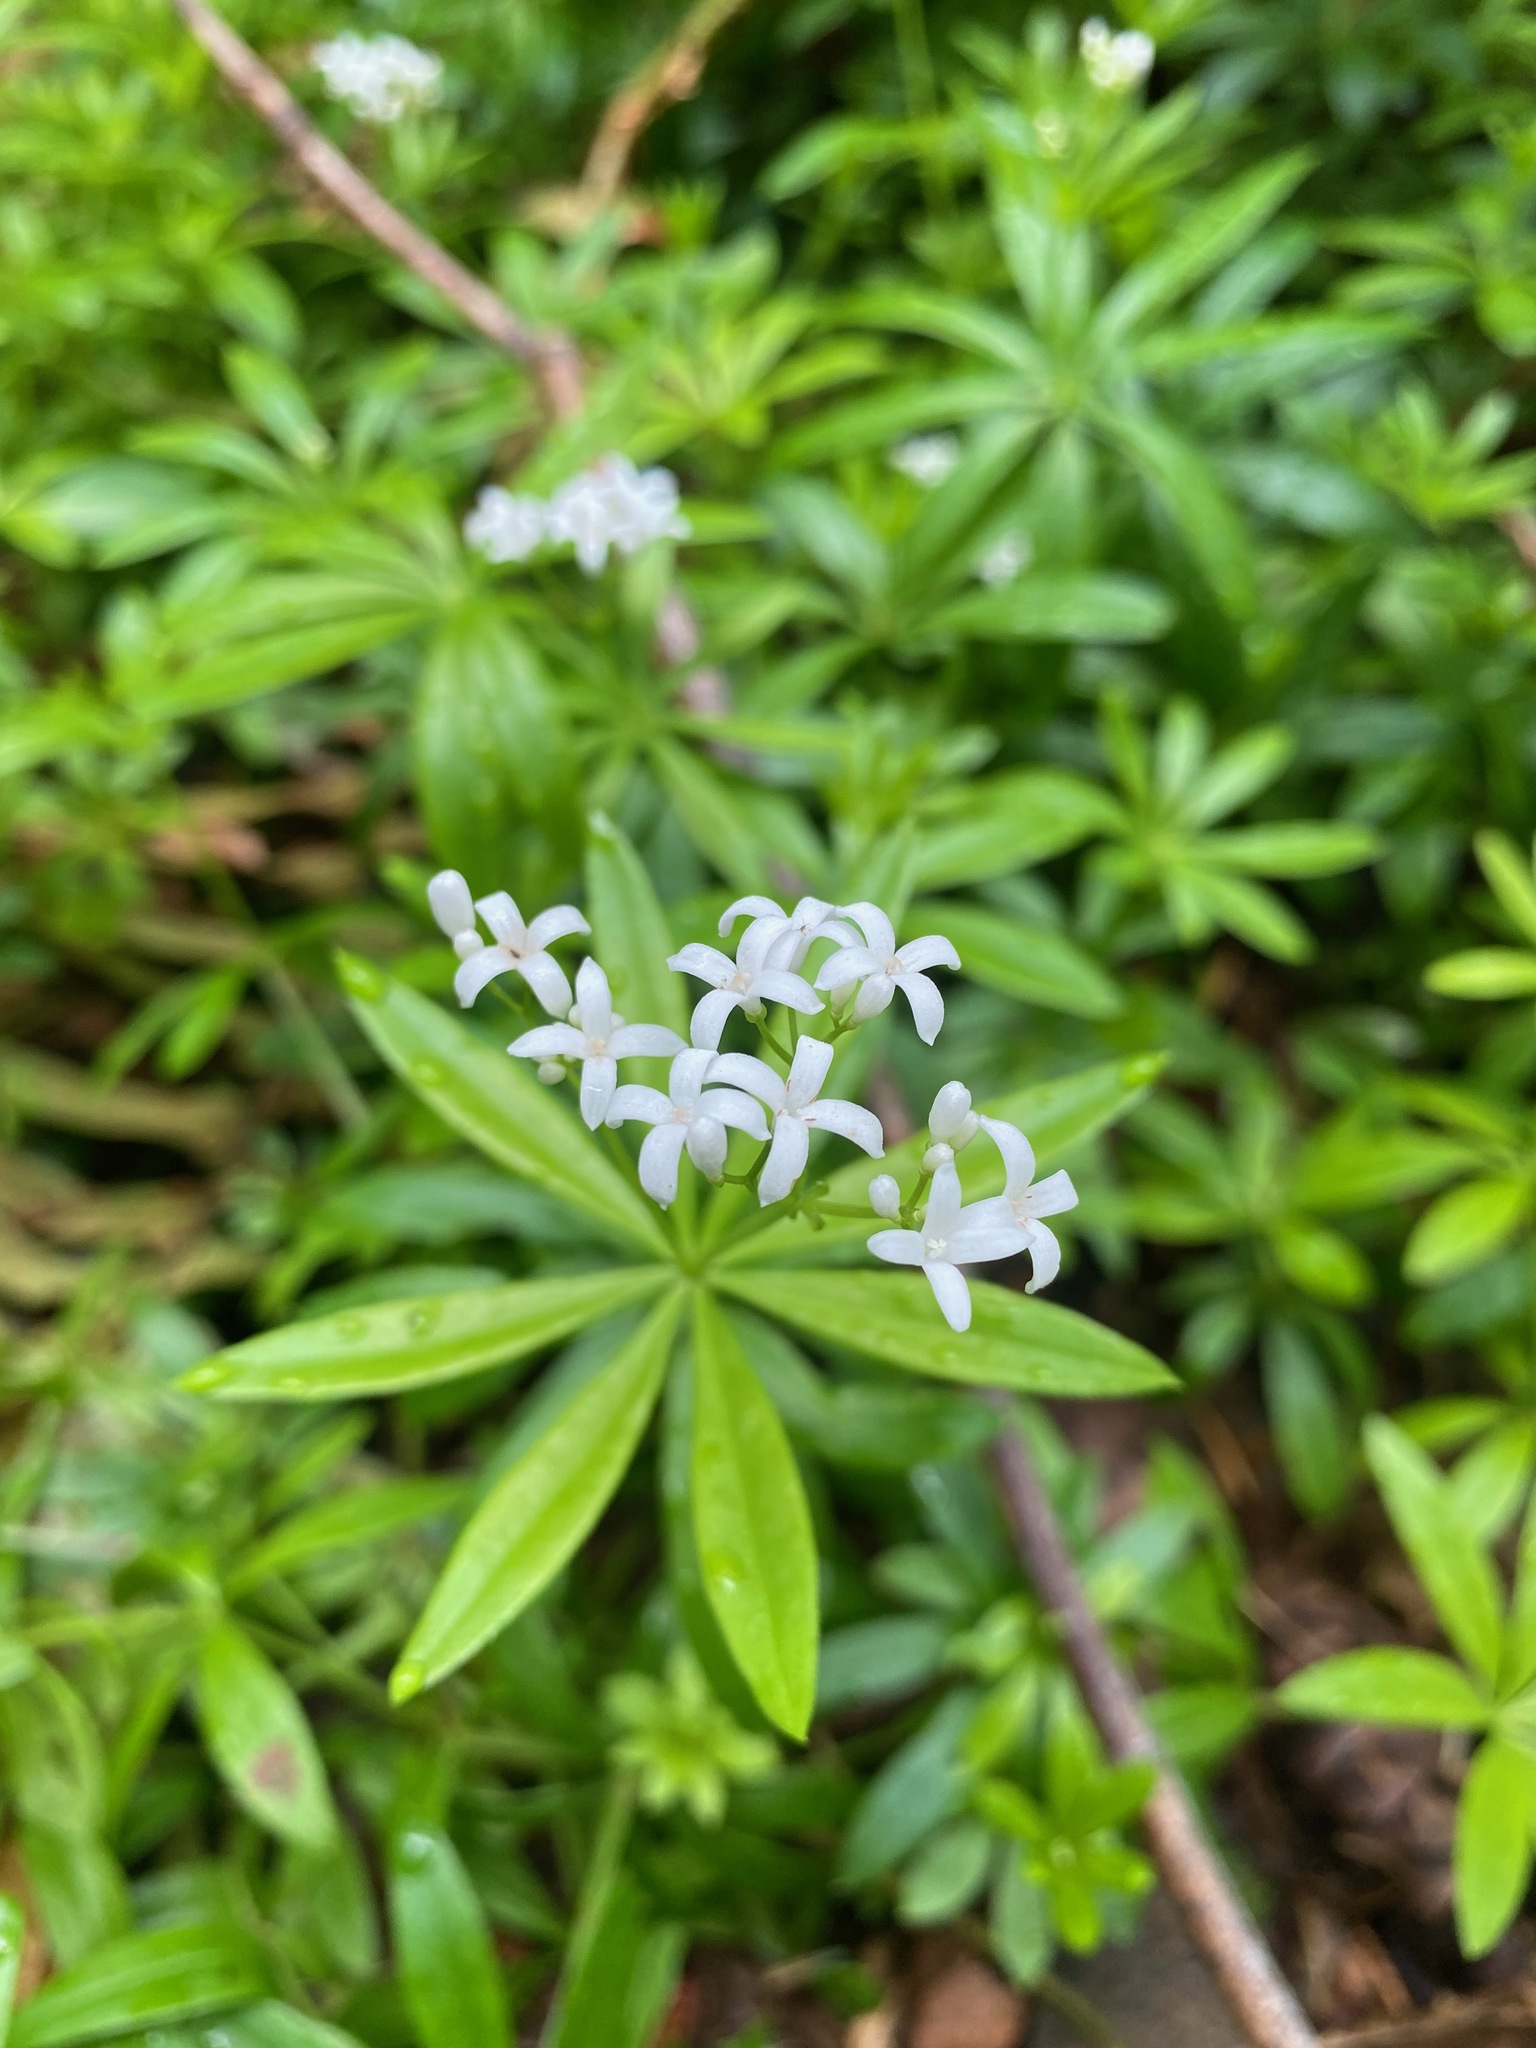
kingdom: Plantae
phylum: Tracheophyta
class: Magnoliopsida
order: Gentianales
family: Rubiaceae
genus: Galium
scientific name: Galium odoratum
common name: Sweet woodruff
